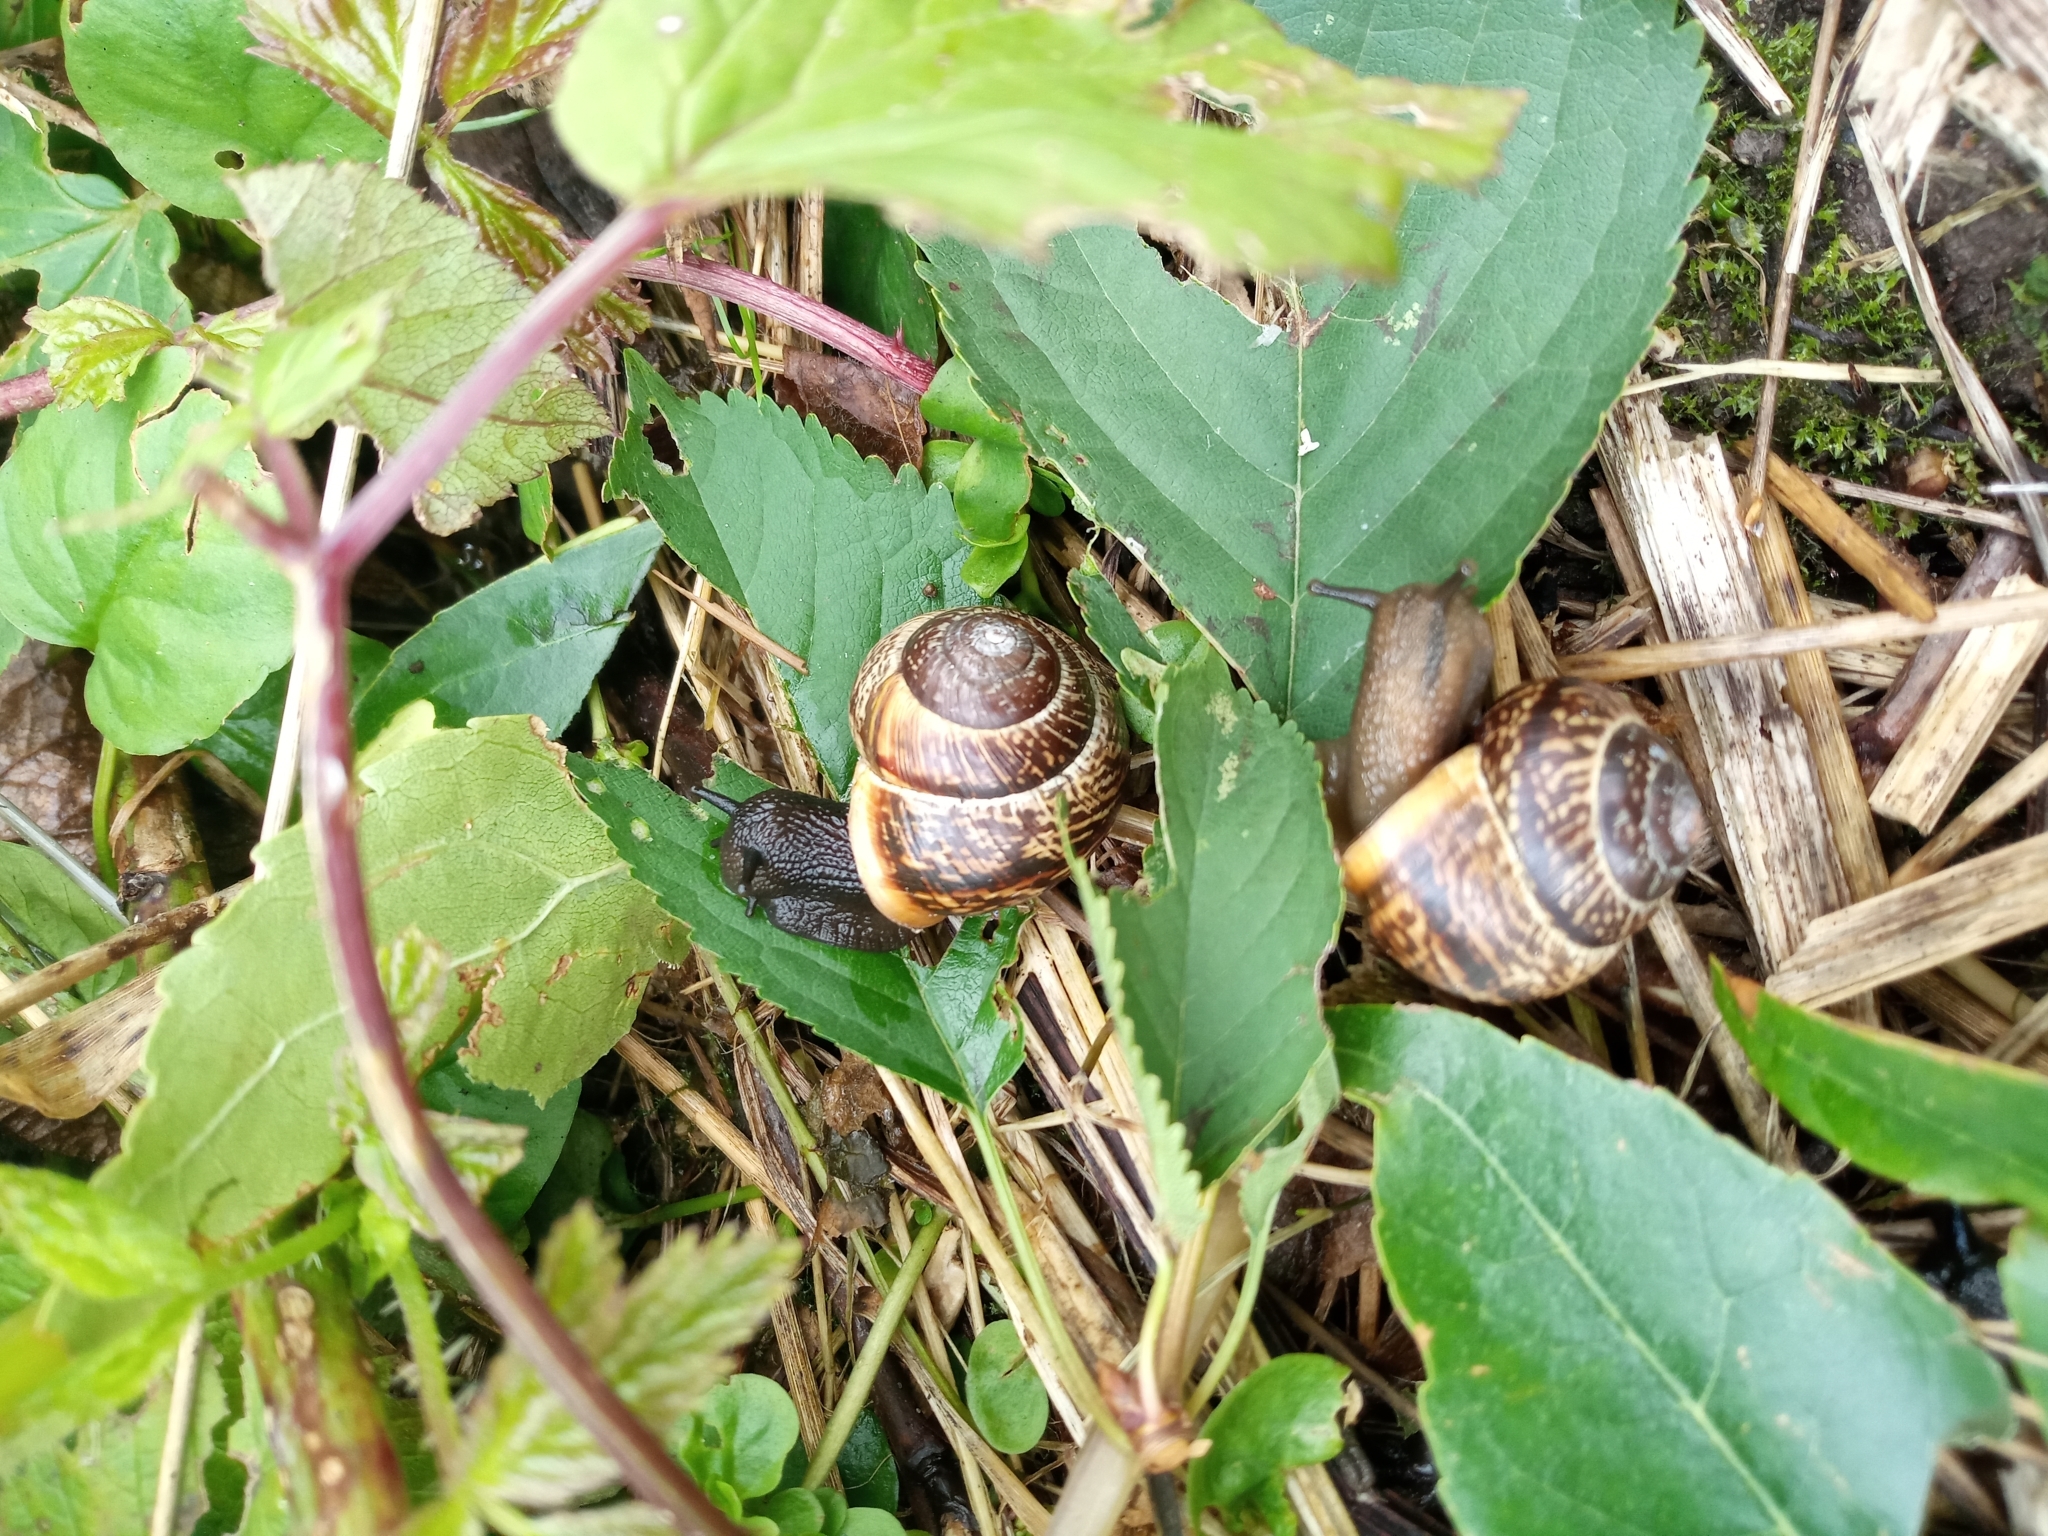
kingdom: Animalia
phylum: Mollusca
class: Gastropoda
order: Stylommatophora
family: Helicidae
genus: Arianta
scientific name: Arianta arbustorum
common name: Copse snail
